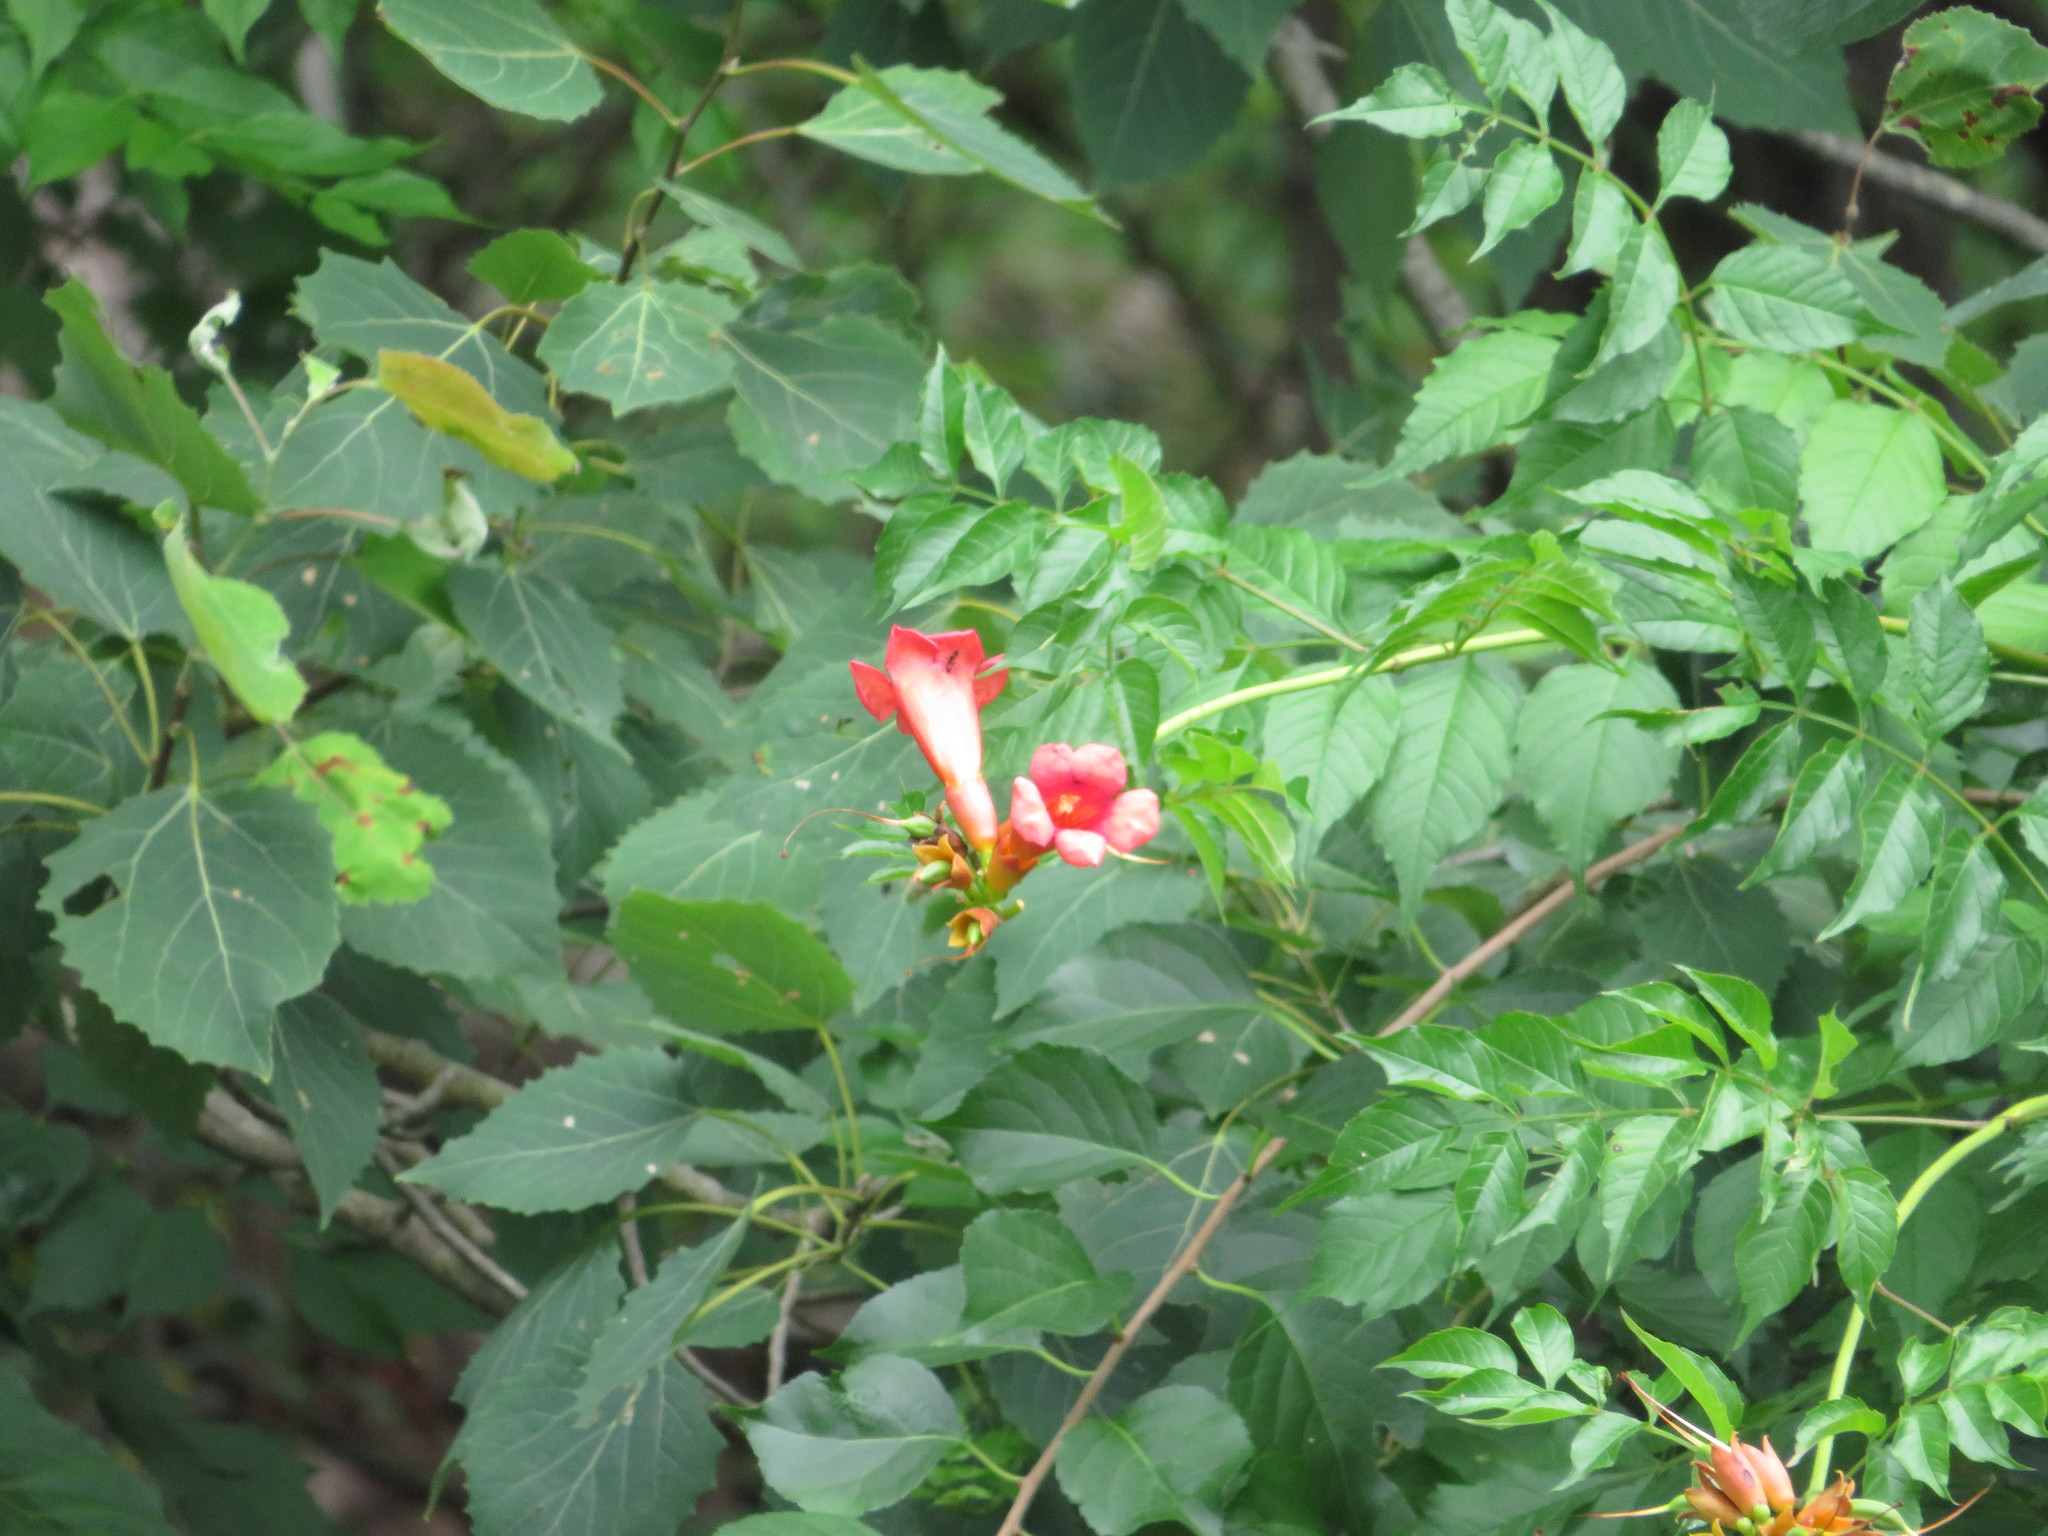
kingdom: Plantae
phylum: Tracheophyta
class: Magnoliopsida
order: Lamiales
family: Bignoniaceae
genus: Campsis
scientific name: Campsis radicans
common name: Trumpet-creeper
